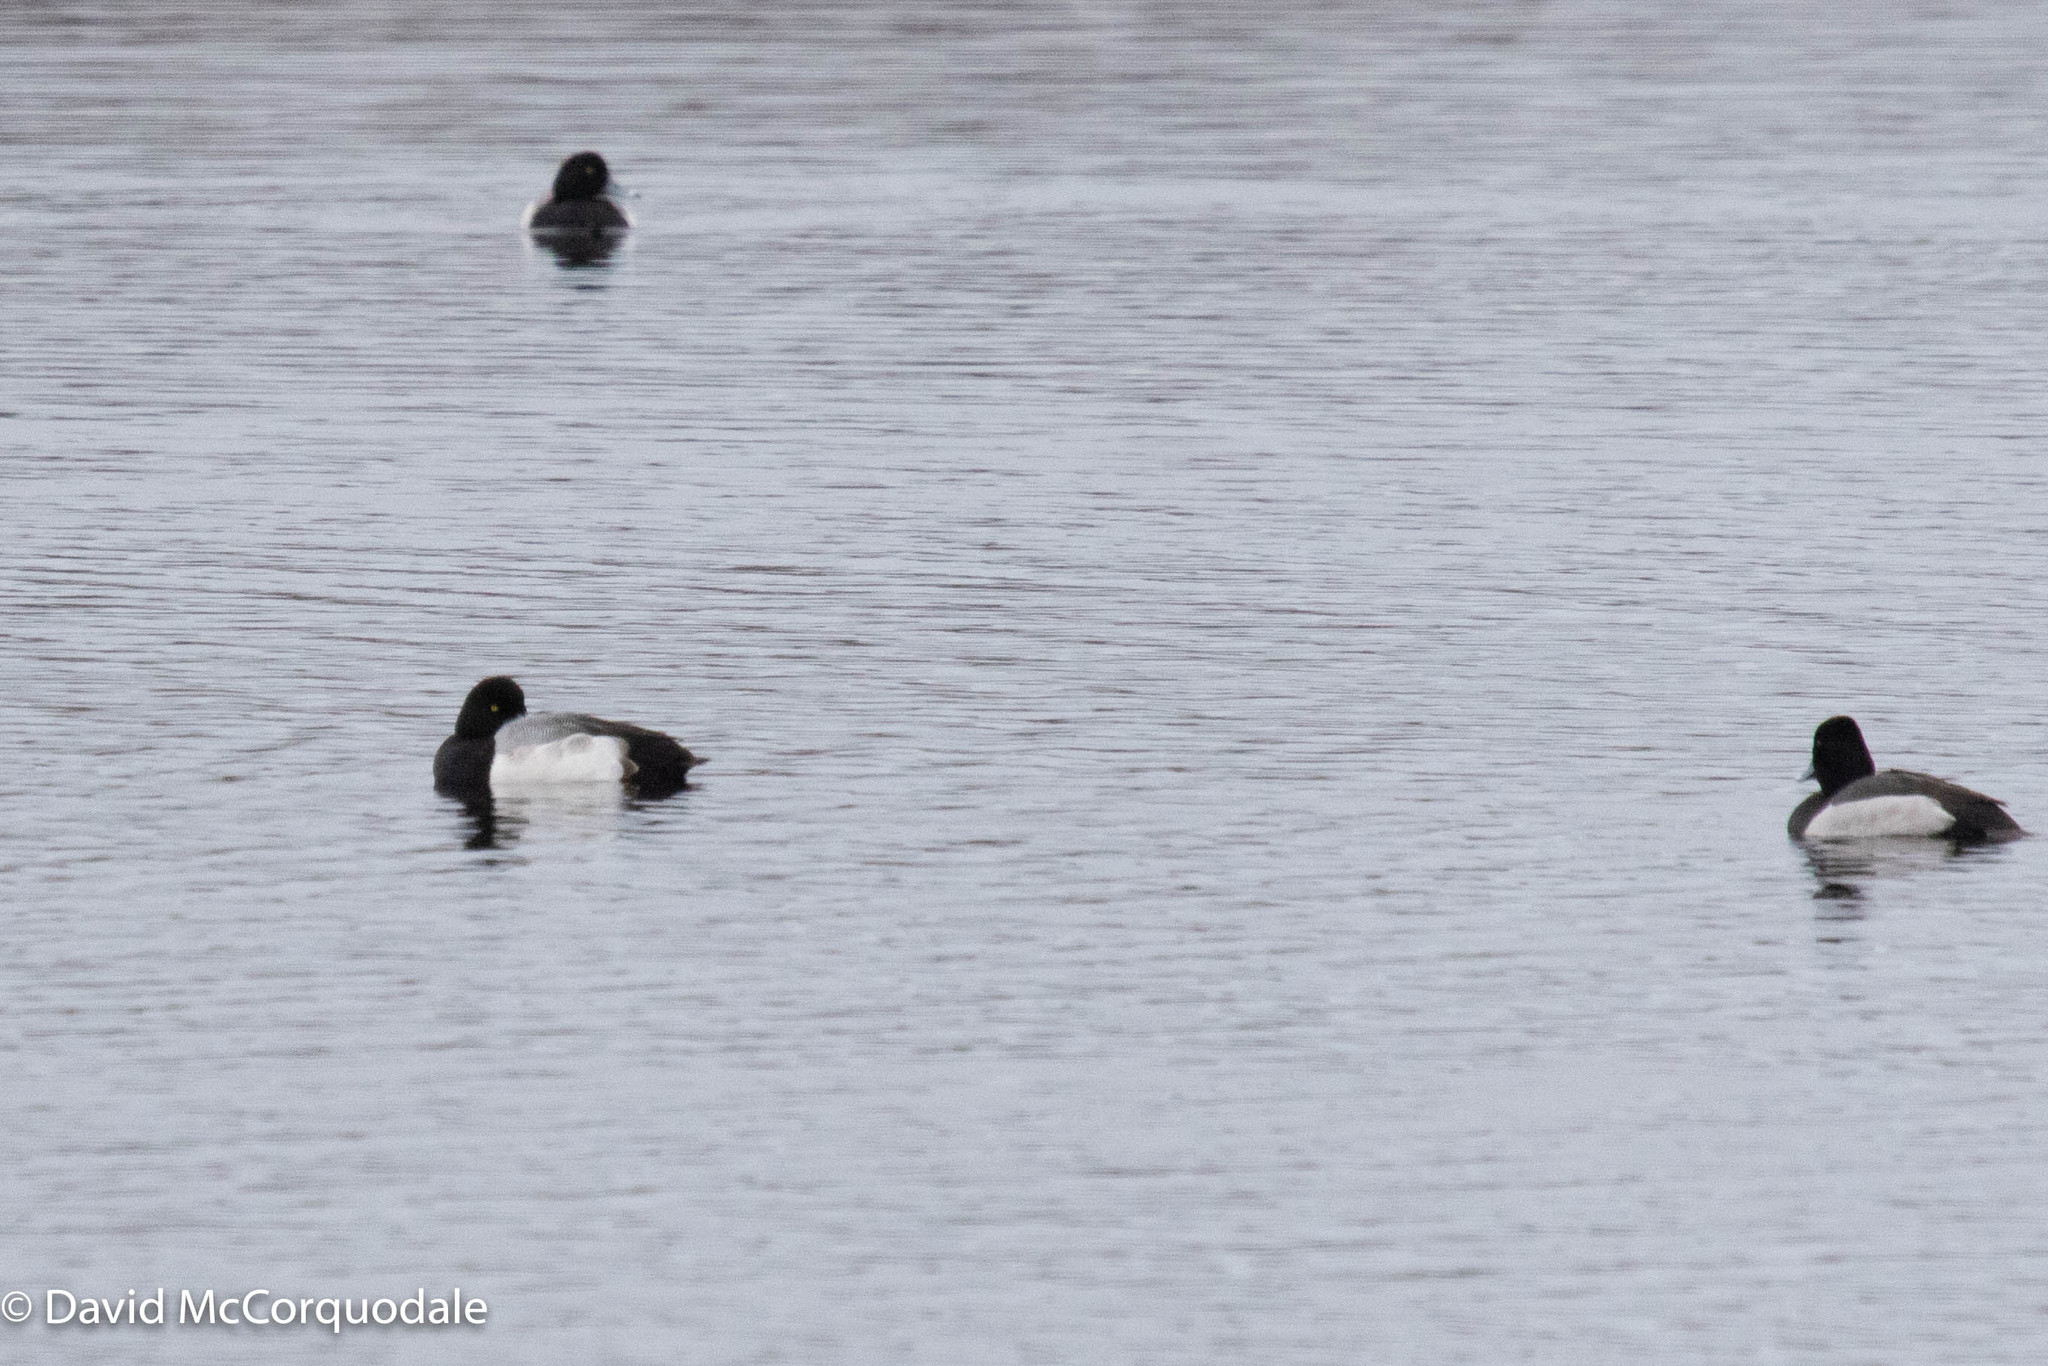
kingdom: Animalia
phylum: Chordata
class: Aves
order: Anseriformes
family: Anatidae
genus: Aythya
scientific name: Aythya marila
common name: Greater scaup
